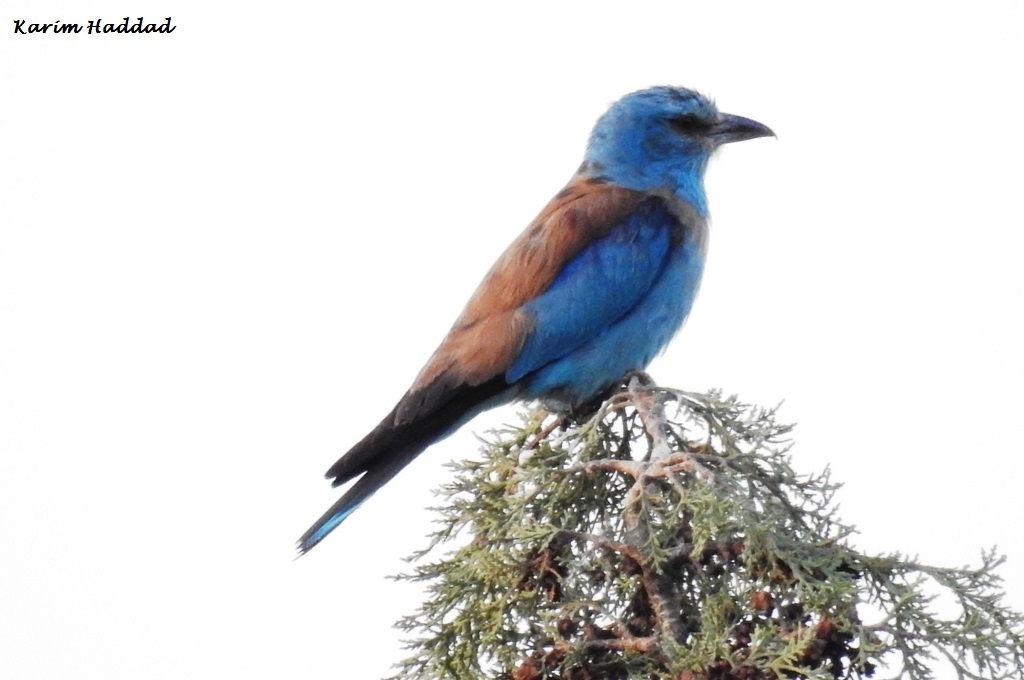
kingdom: Animalia
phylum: Chordata
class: Aves
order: Coraciiformes
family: Coraciidae
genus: Coracias
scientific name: Coracias garrulus
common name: European roller
